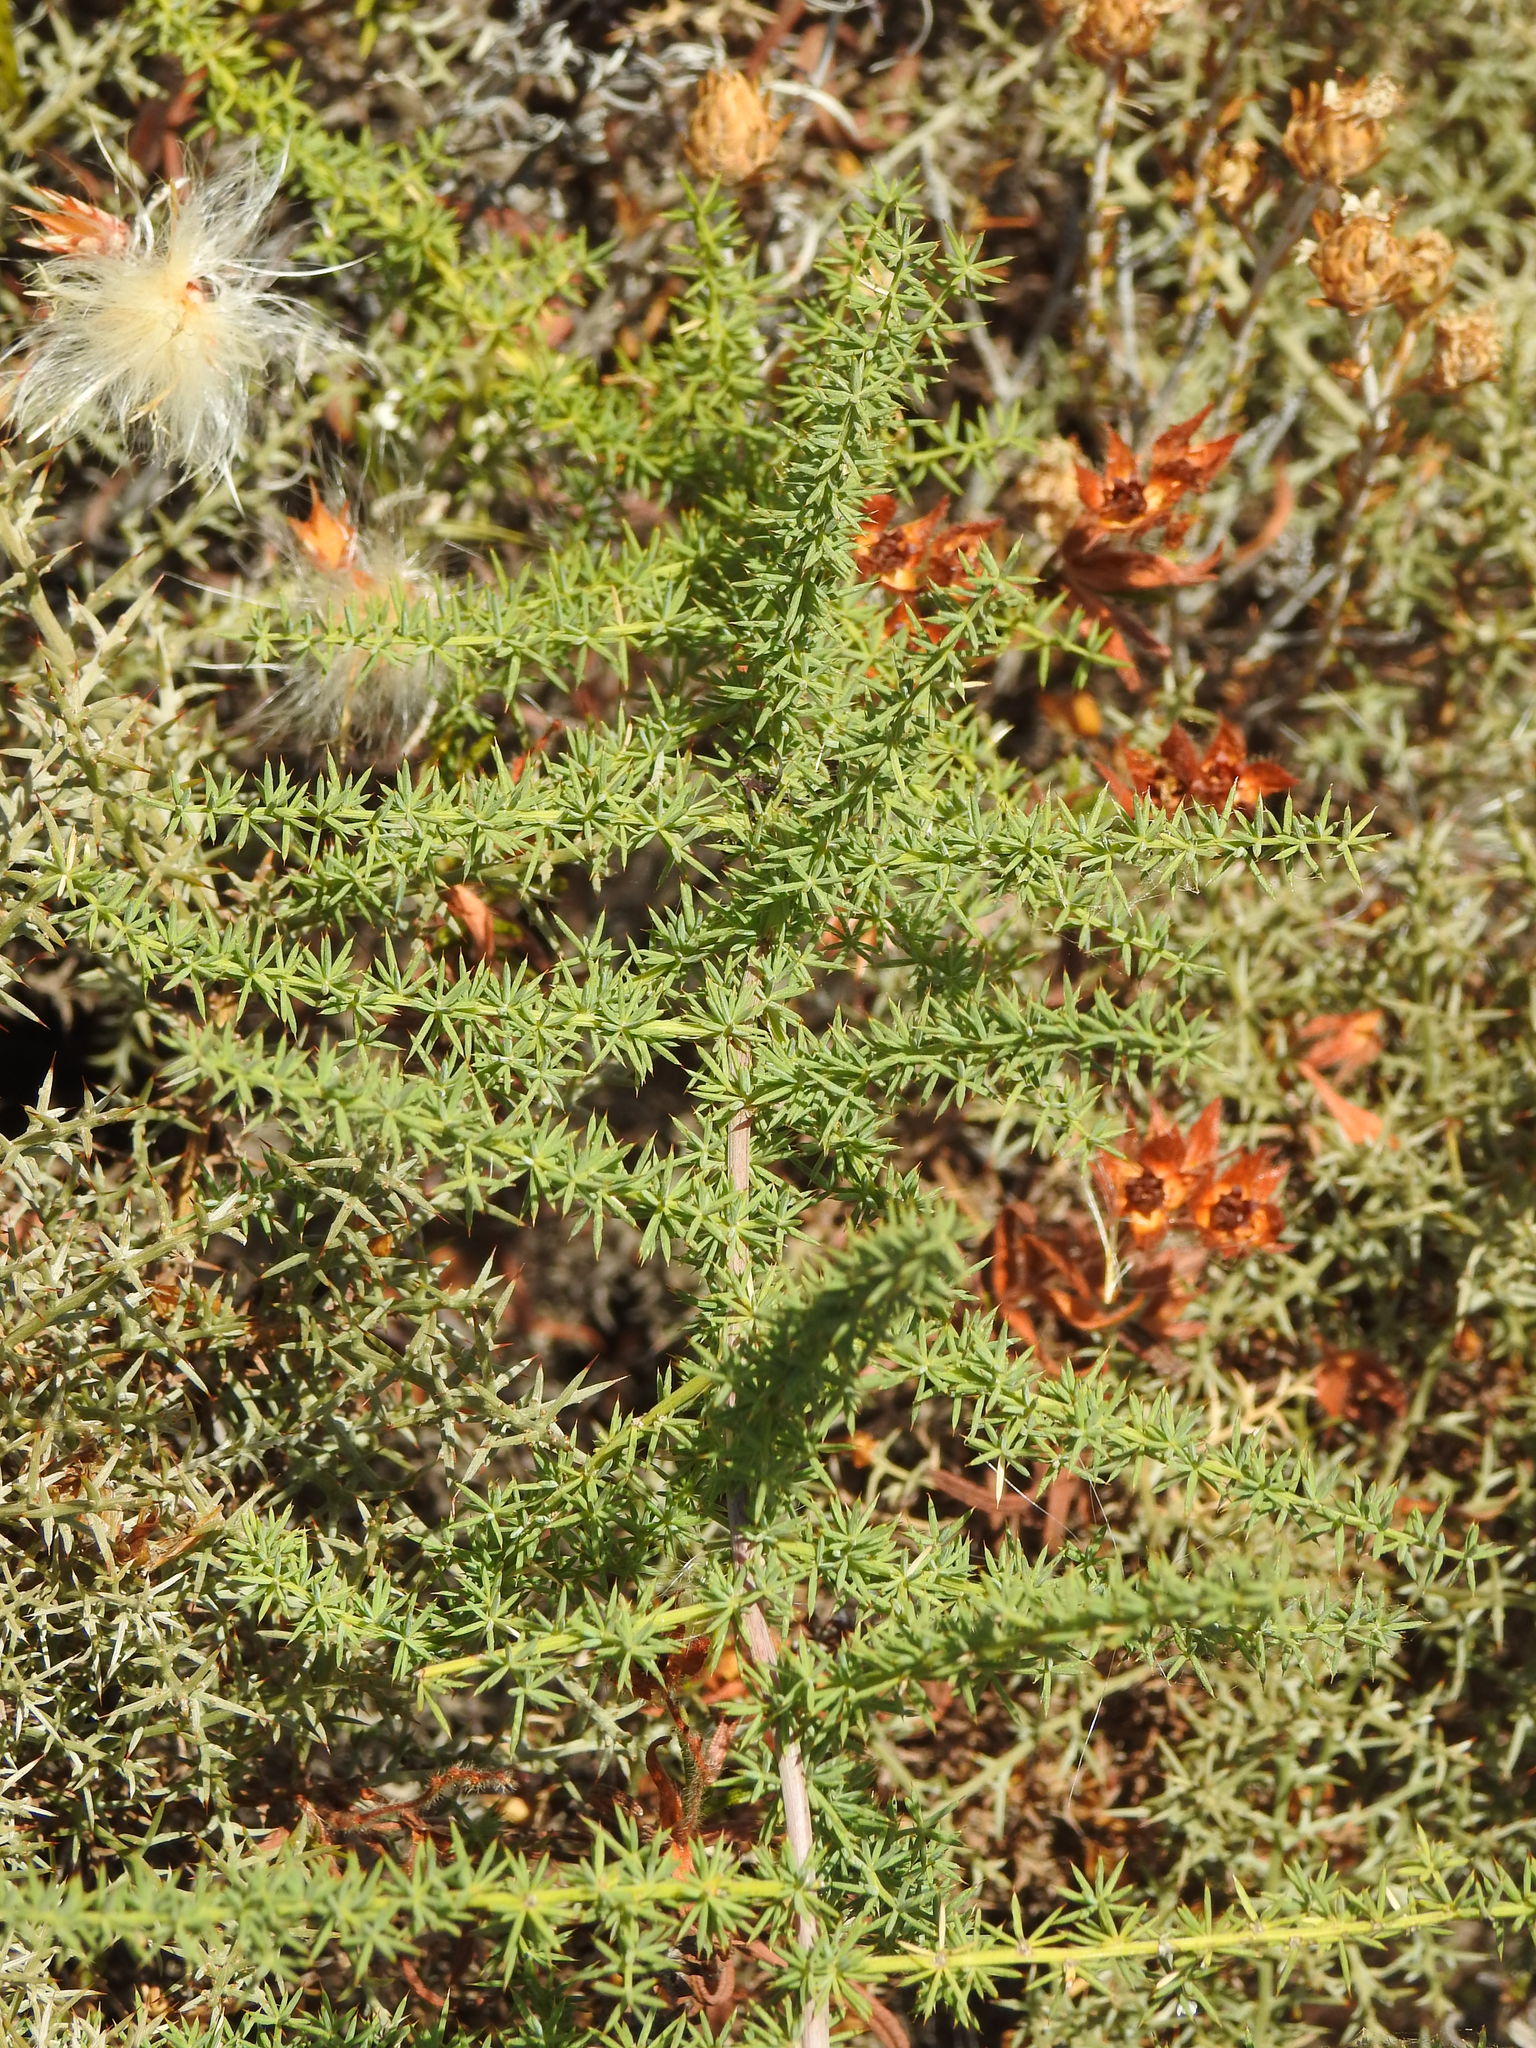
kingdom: Plantae
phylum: Tracheophyta
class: Liliopsida
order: Asparagales
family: Asparagaceae
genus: Asparagus
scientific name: Asparagus acutifolius
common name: Wild asparagus
